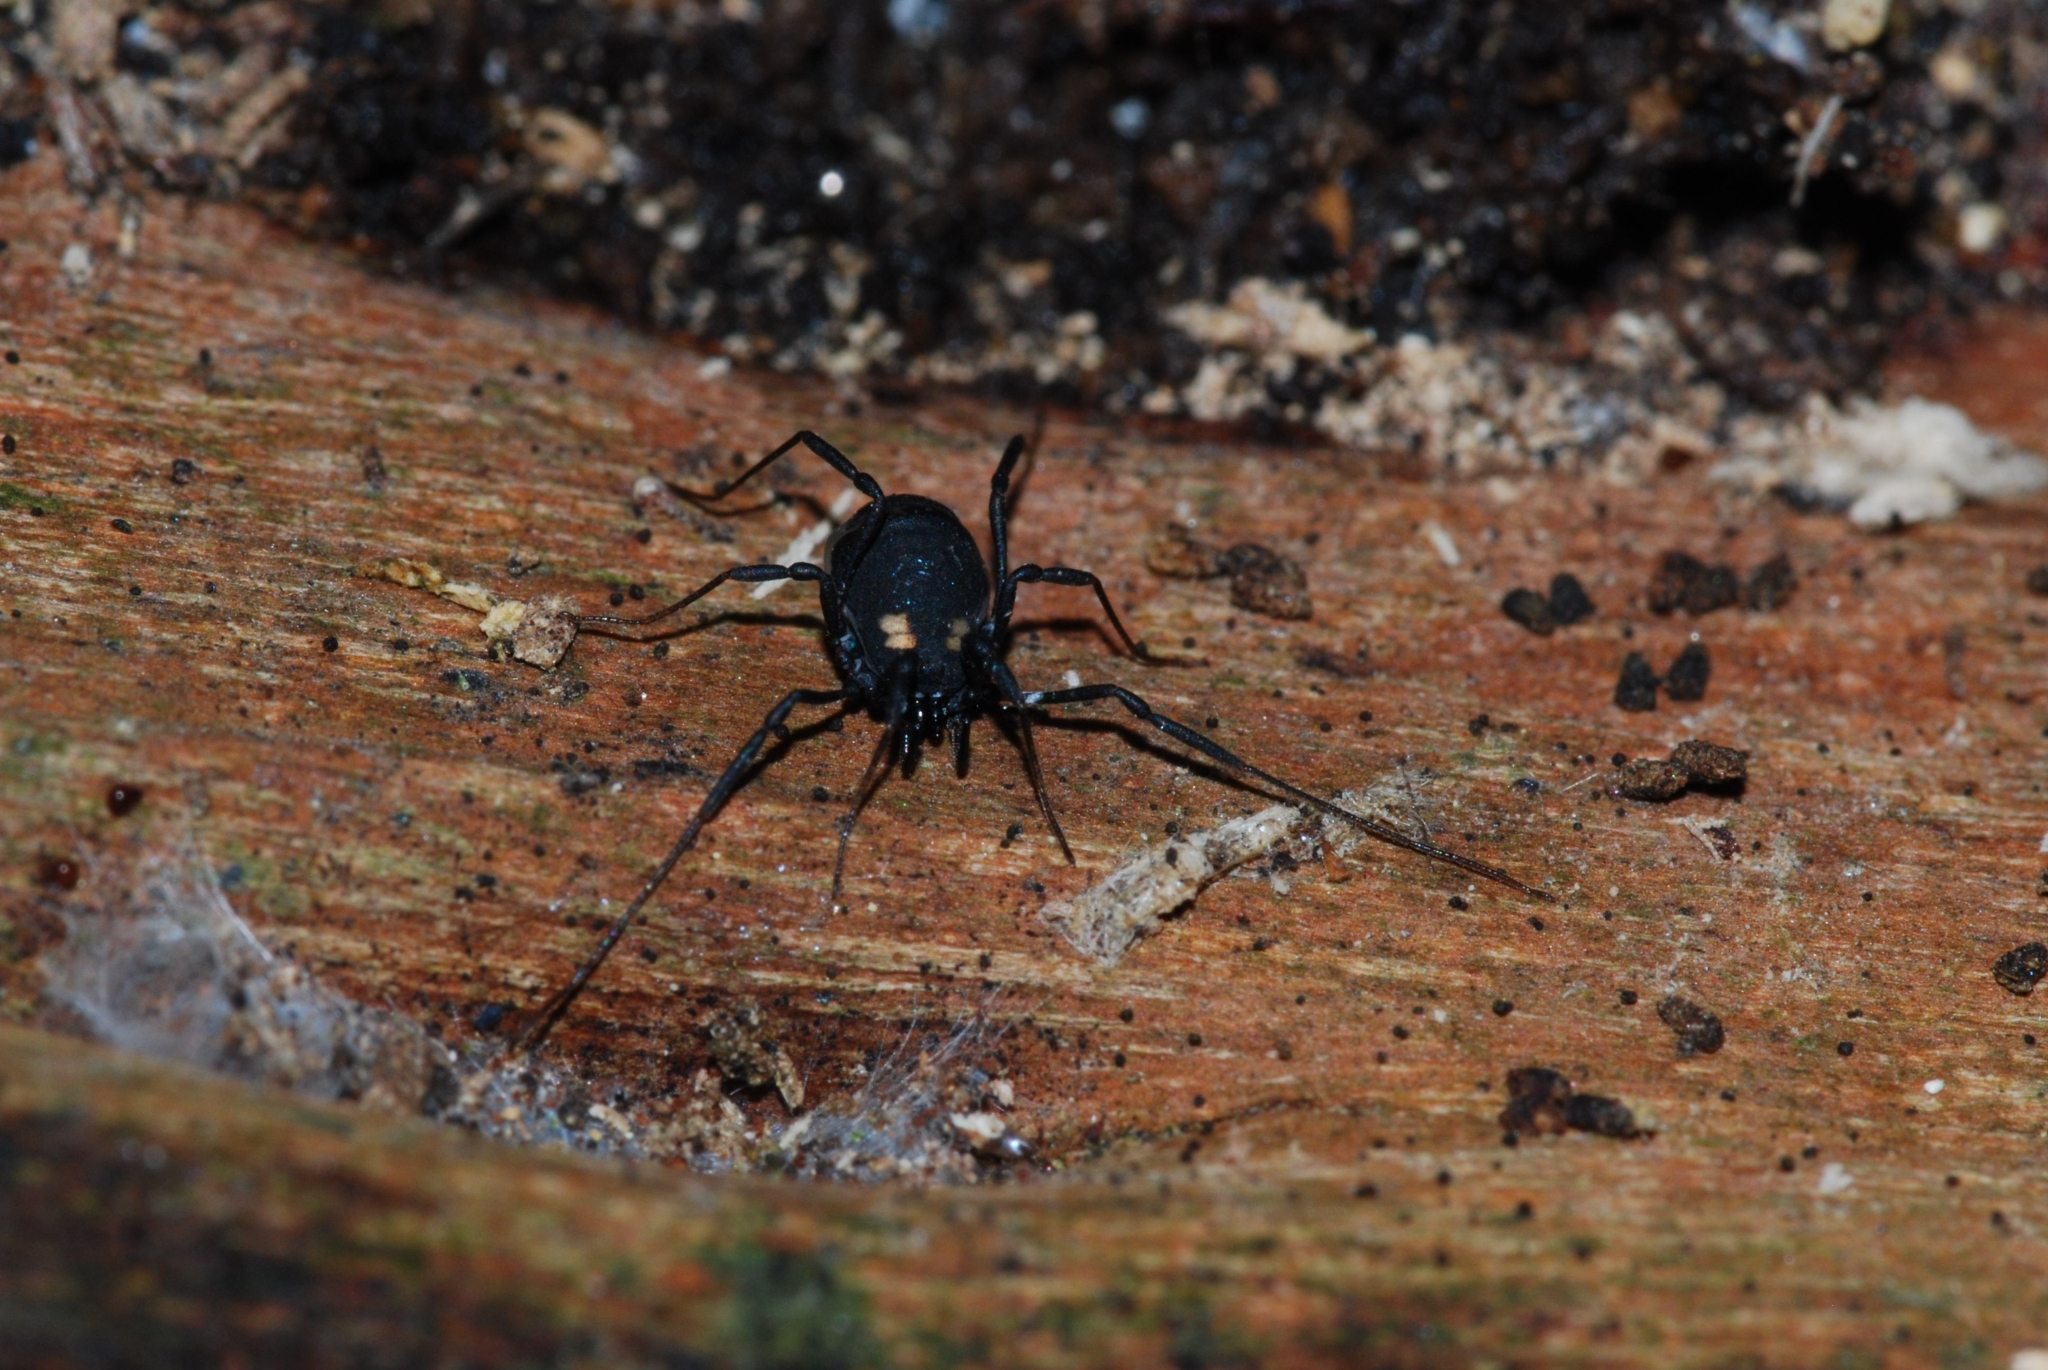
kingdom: Animalia
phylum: Arthropoda
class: Arachnida
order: Opiliones
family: Nemastomatidae
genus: Nemastoma
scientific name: Nemastoma bimaculatum
